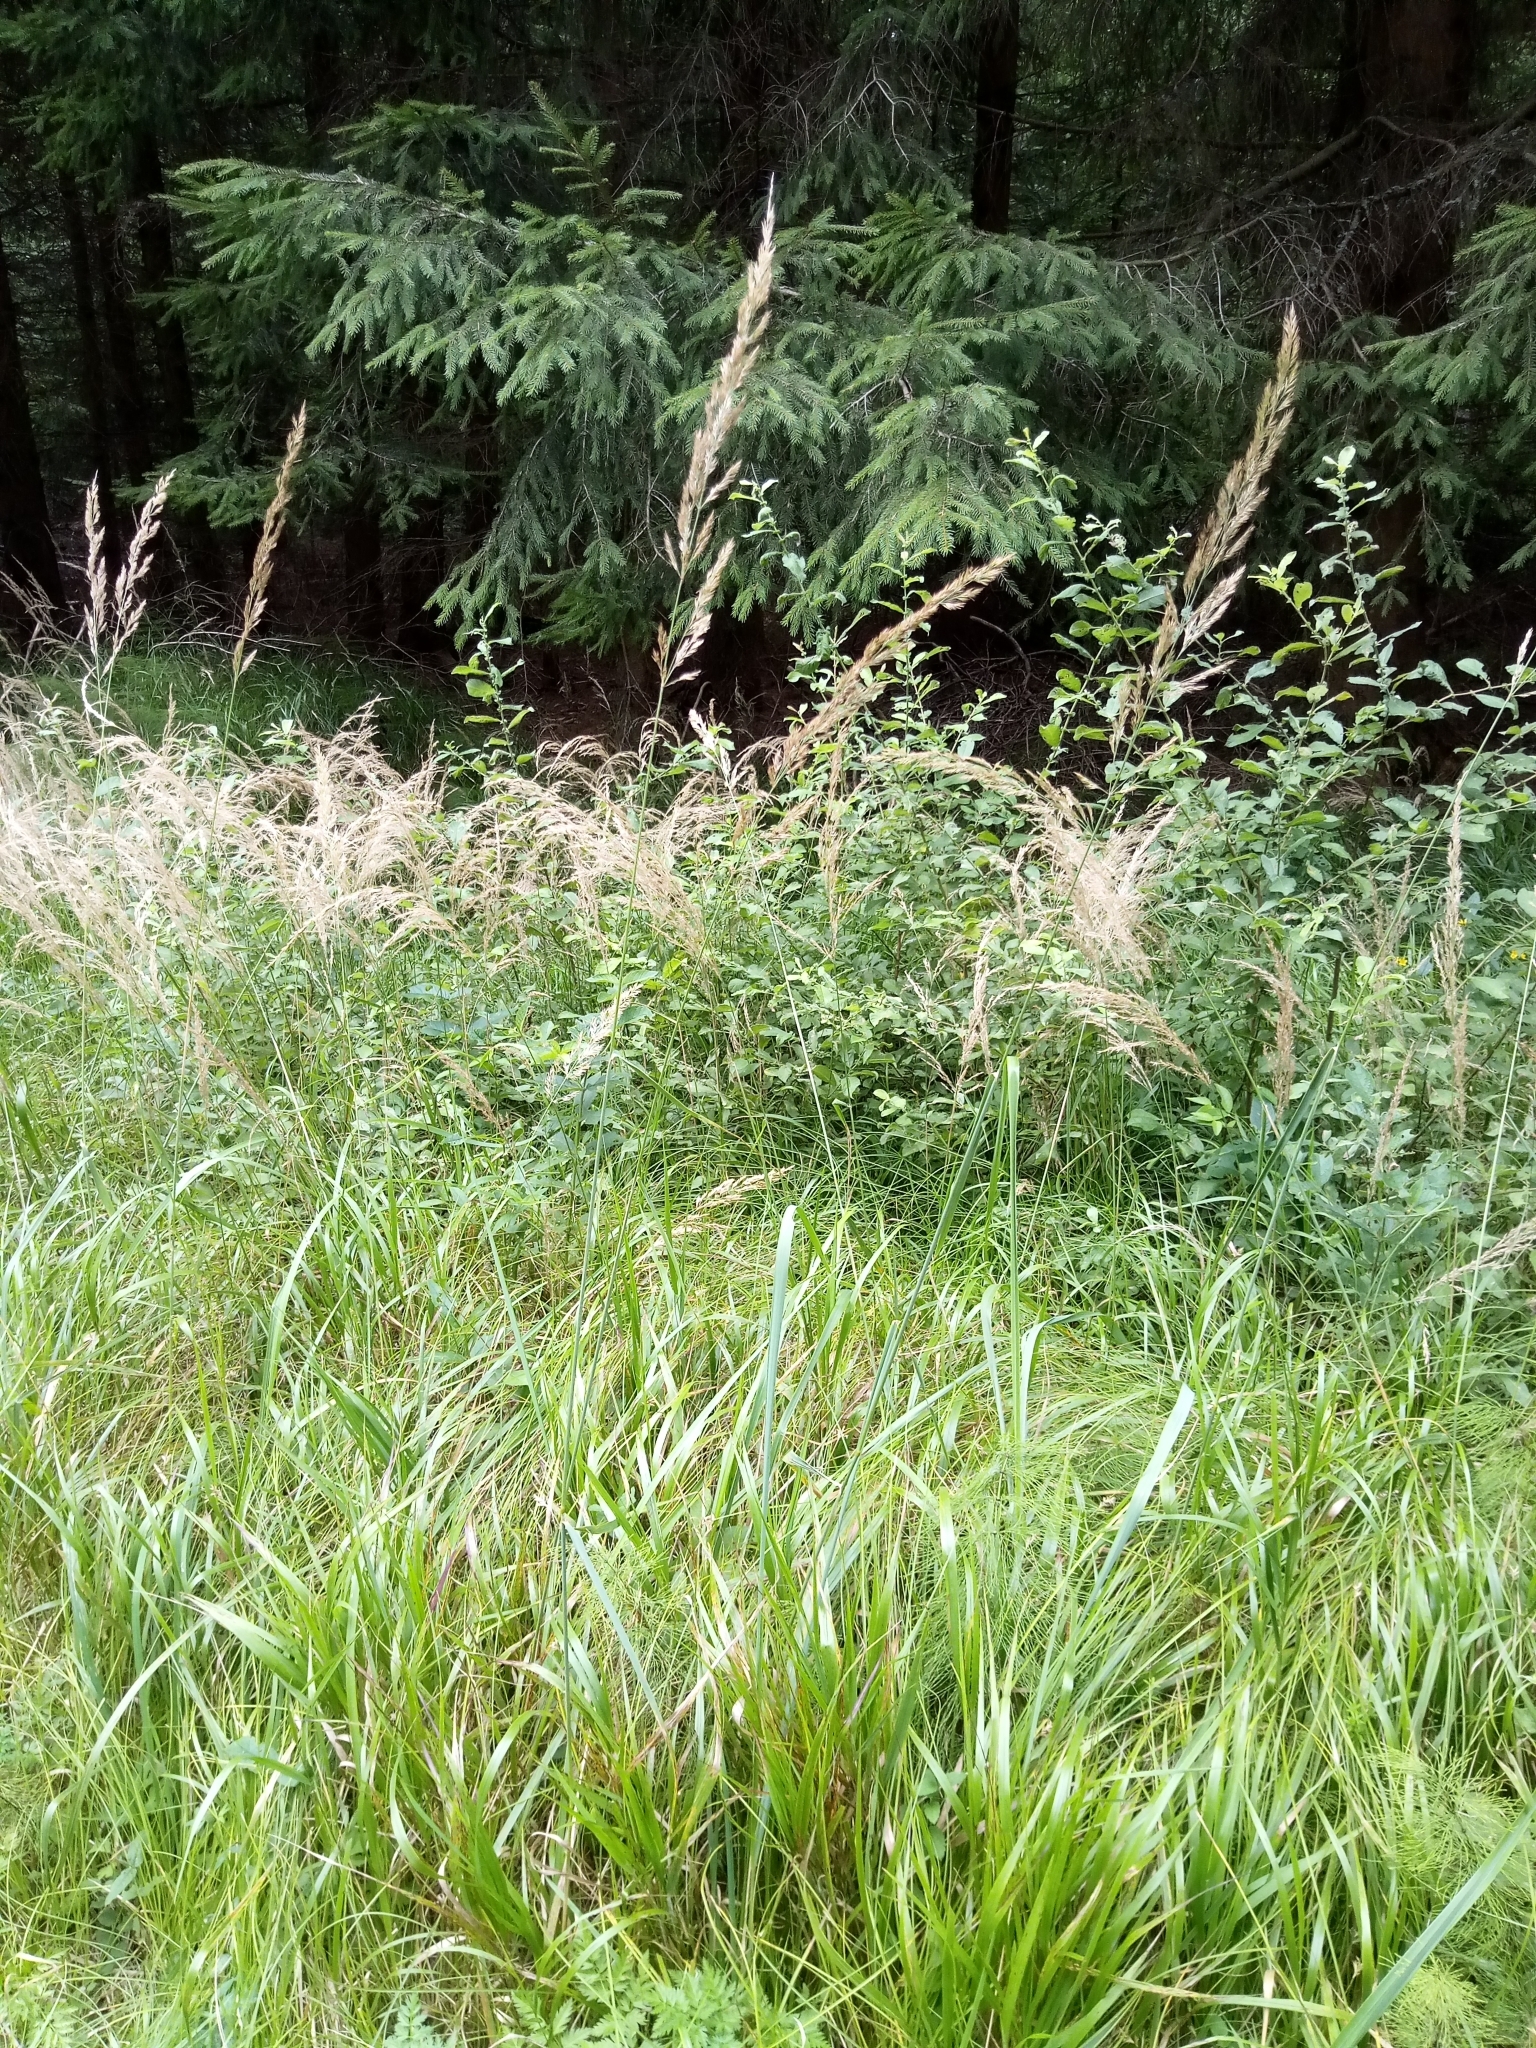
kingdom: Plantae
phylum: Tracheophyta
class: Liliopsida
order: Poales
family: Poaceae
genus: Calamagrostis
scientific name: Calamagrostis epigejos
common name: Wood small-reed
